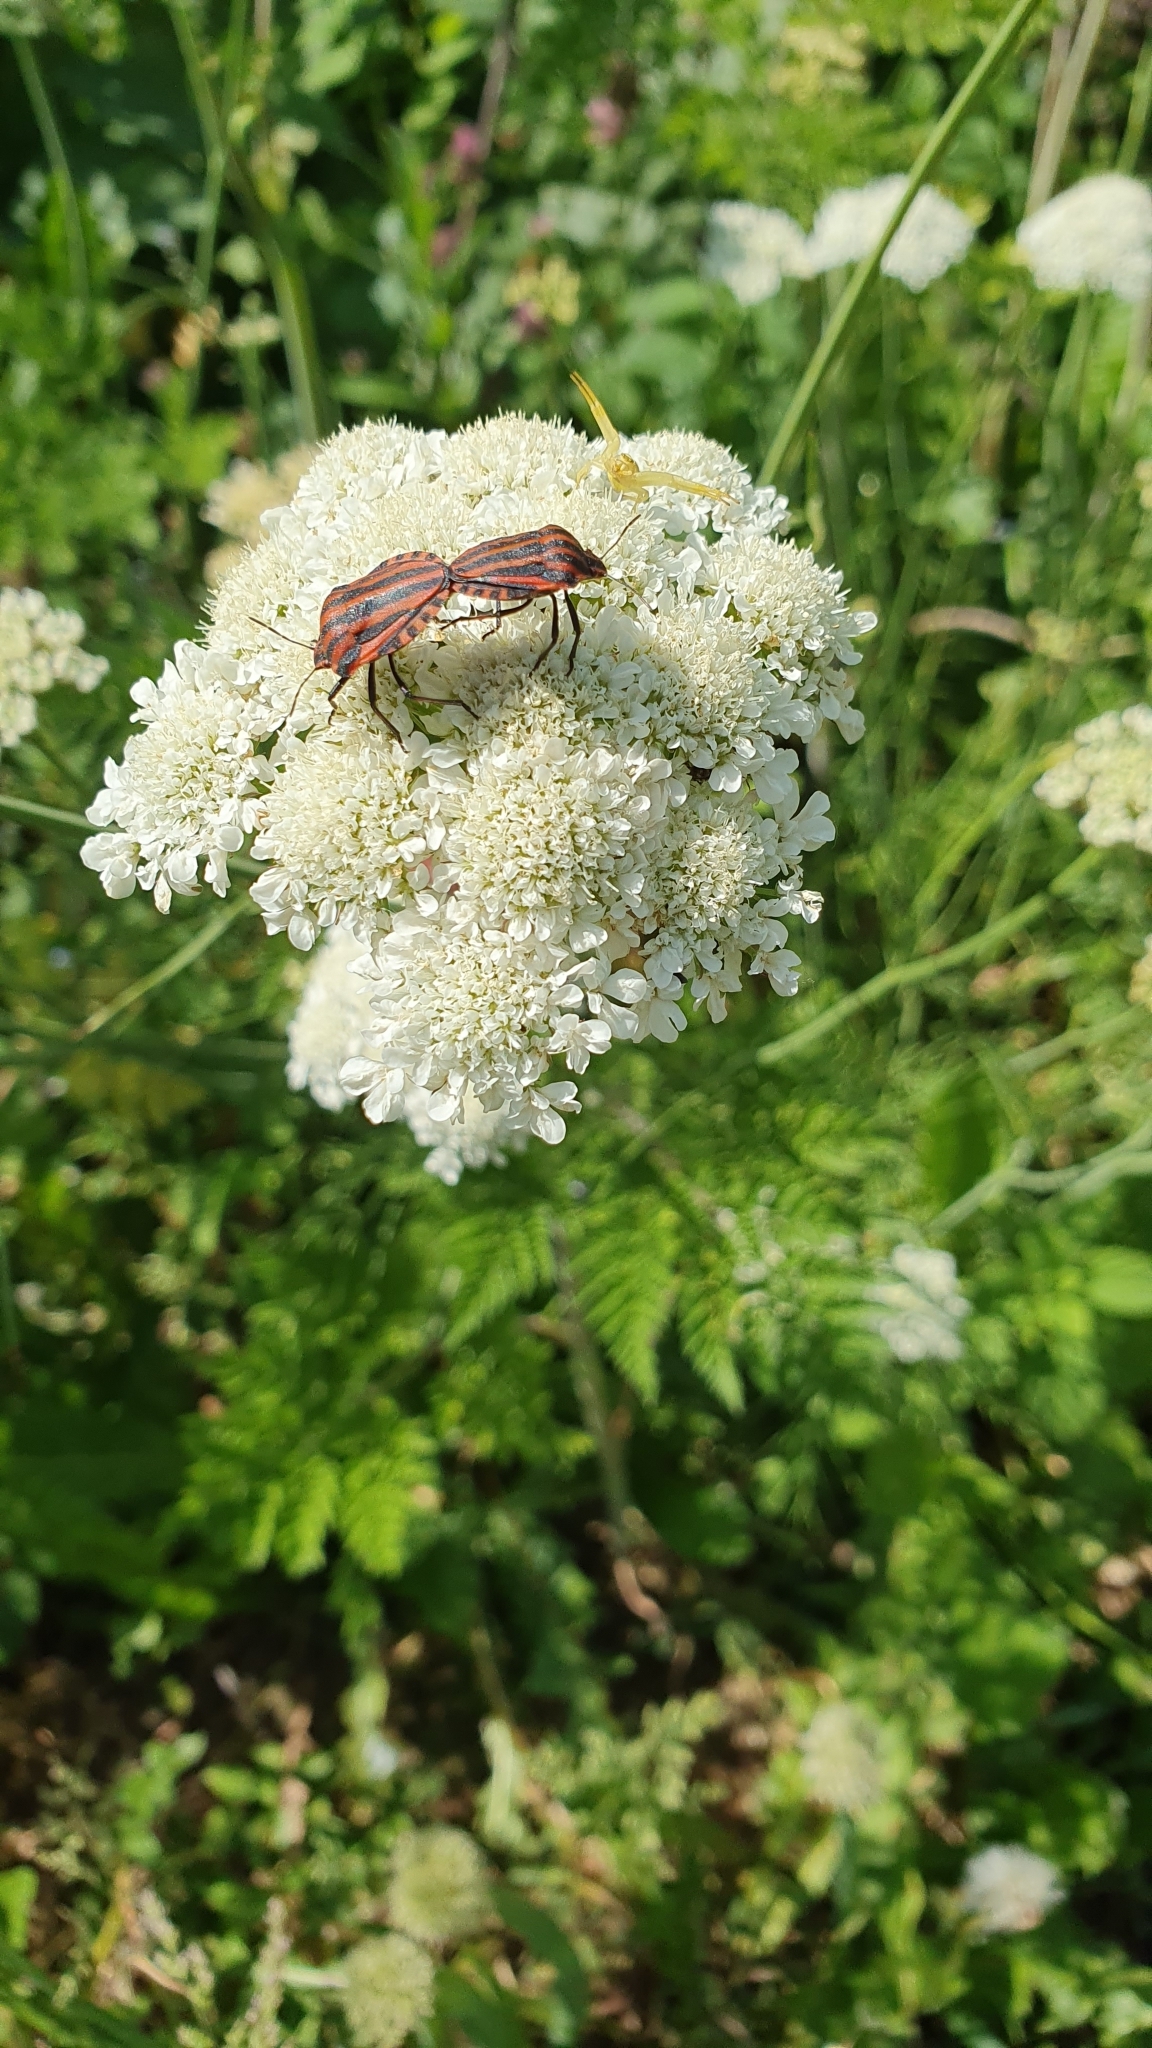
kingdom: Animalia
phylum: Arthropoda
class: Insecta
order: Hemiptera
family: Pentatomidae
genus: Graphosoma
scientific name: Graphosoma italicum
